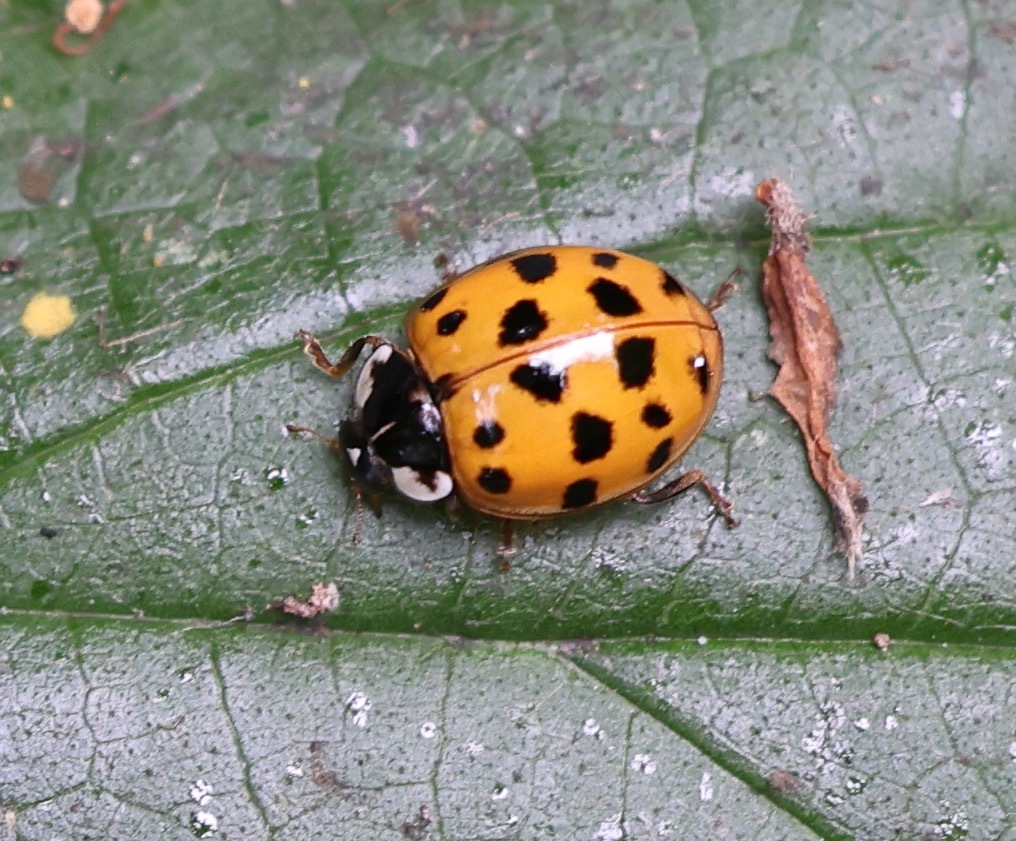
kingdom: Animalia
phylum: Arthropoda
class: Insecta
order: Coleoptera
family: Coccinellidae
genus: Harmonia
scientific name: Harmonia axyridis
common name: Harlequin ladybird
